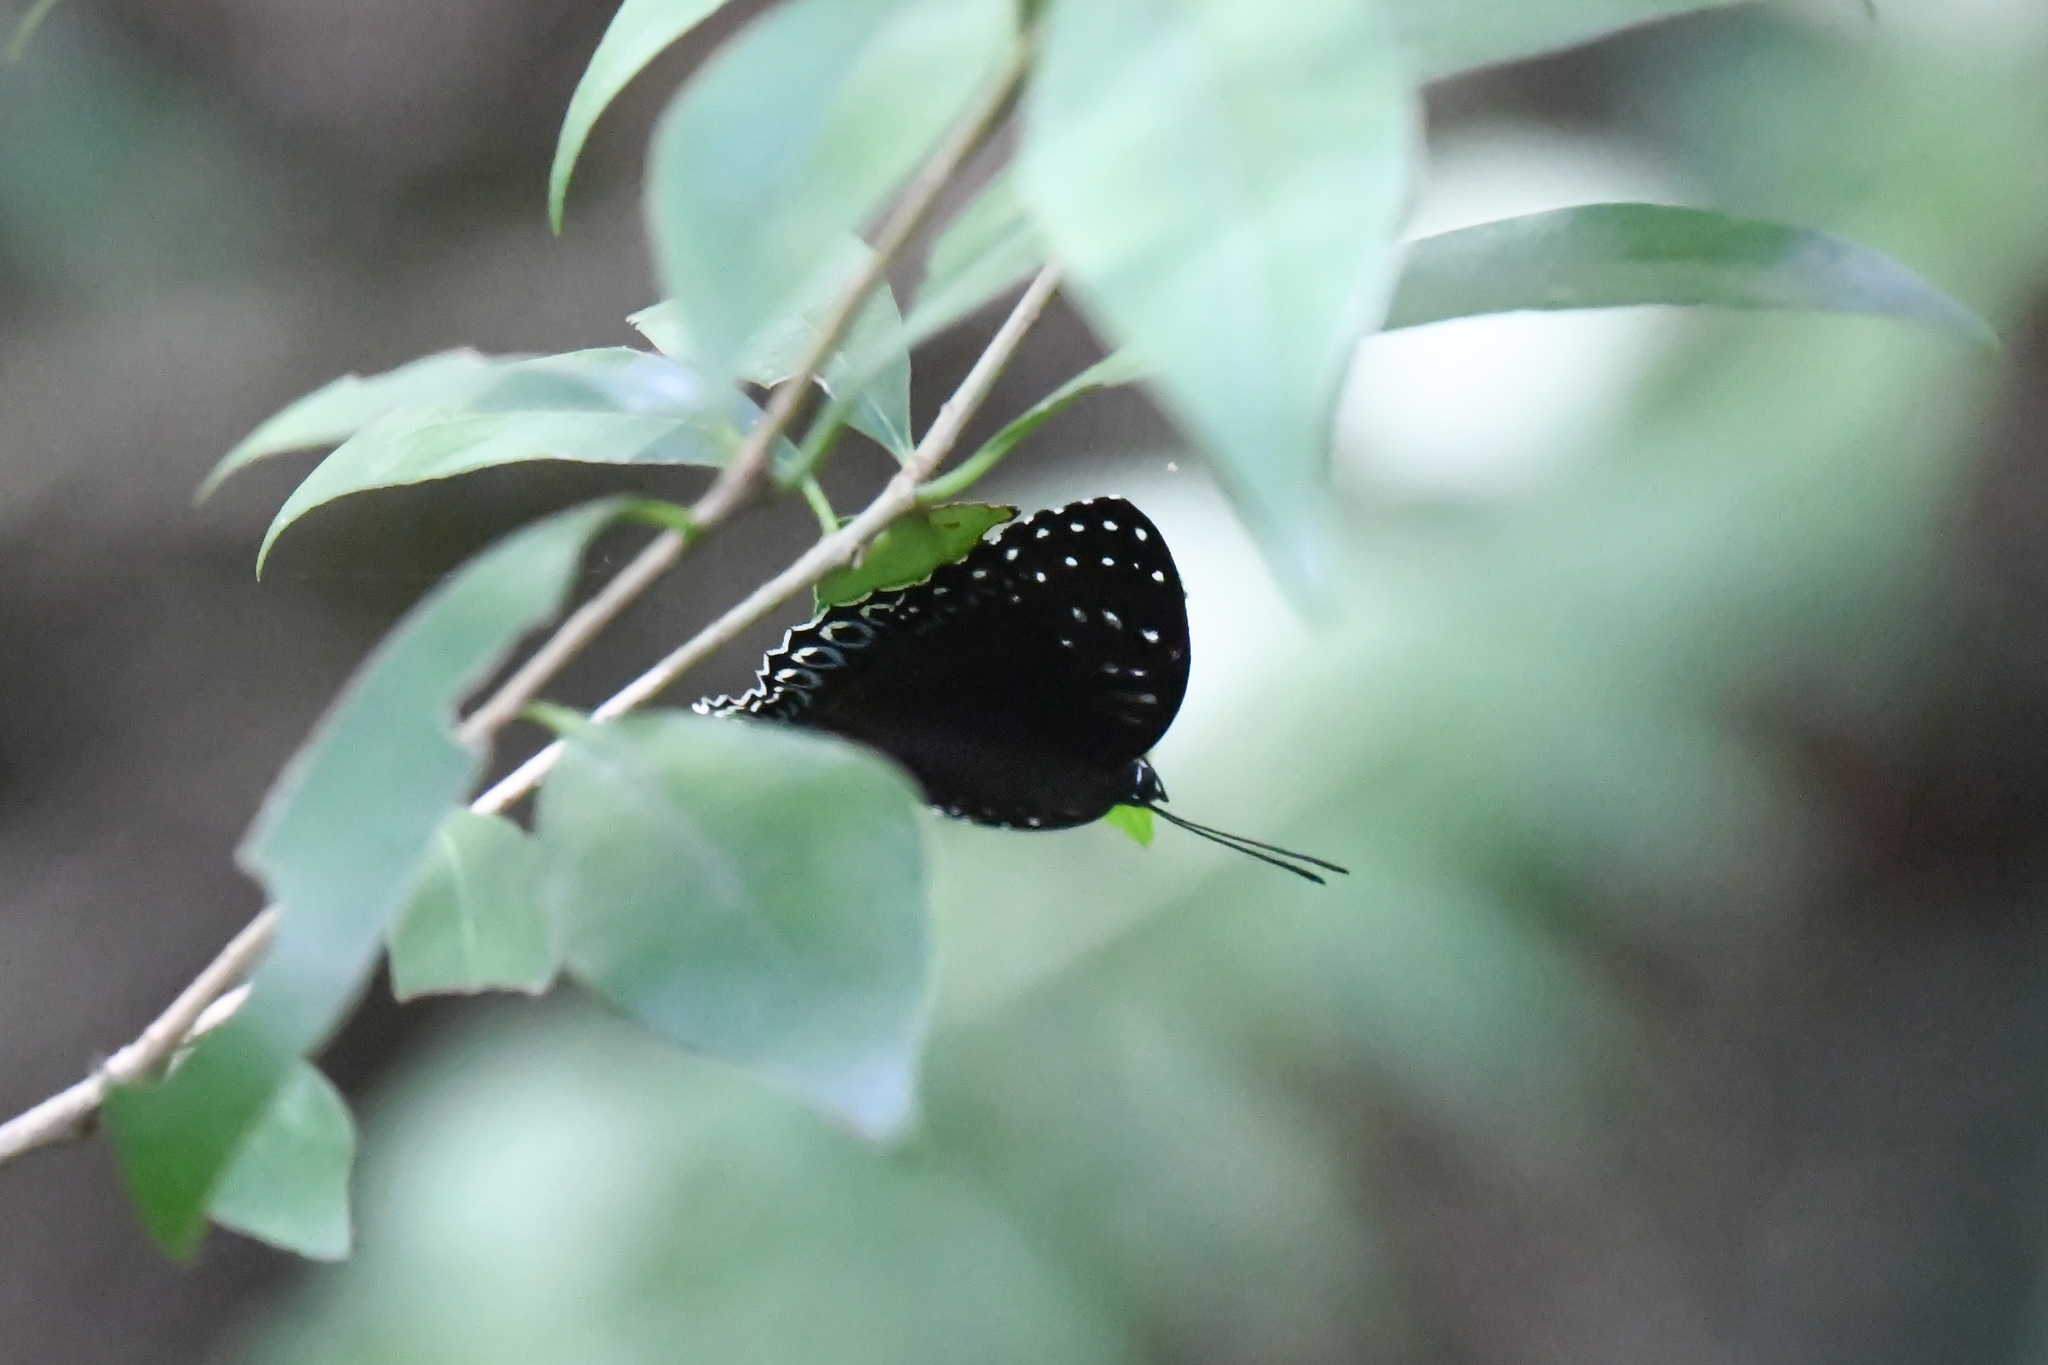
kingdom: Animalia
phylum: Arthropoda
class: Insecta
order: Lepidoptera
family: Nymphalidae
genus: Stibochiona
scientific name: Stibochiona nicea
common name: Popinjay
